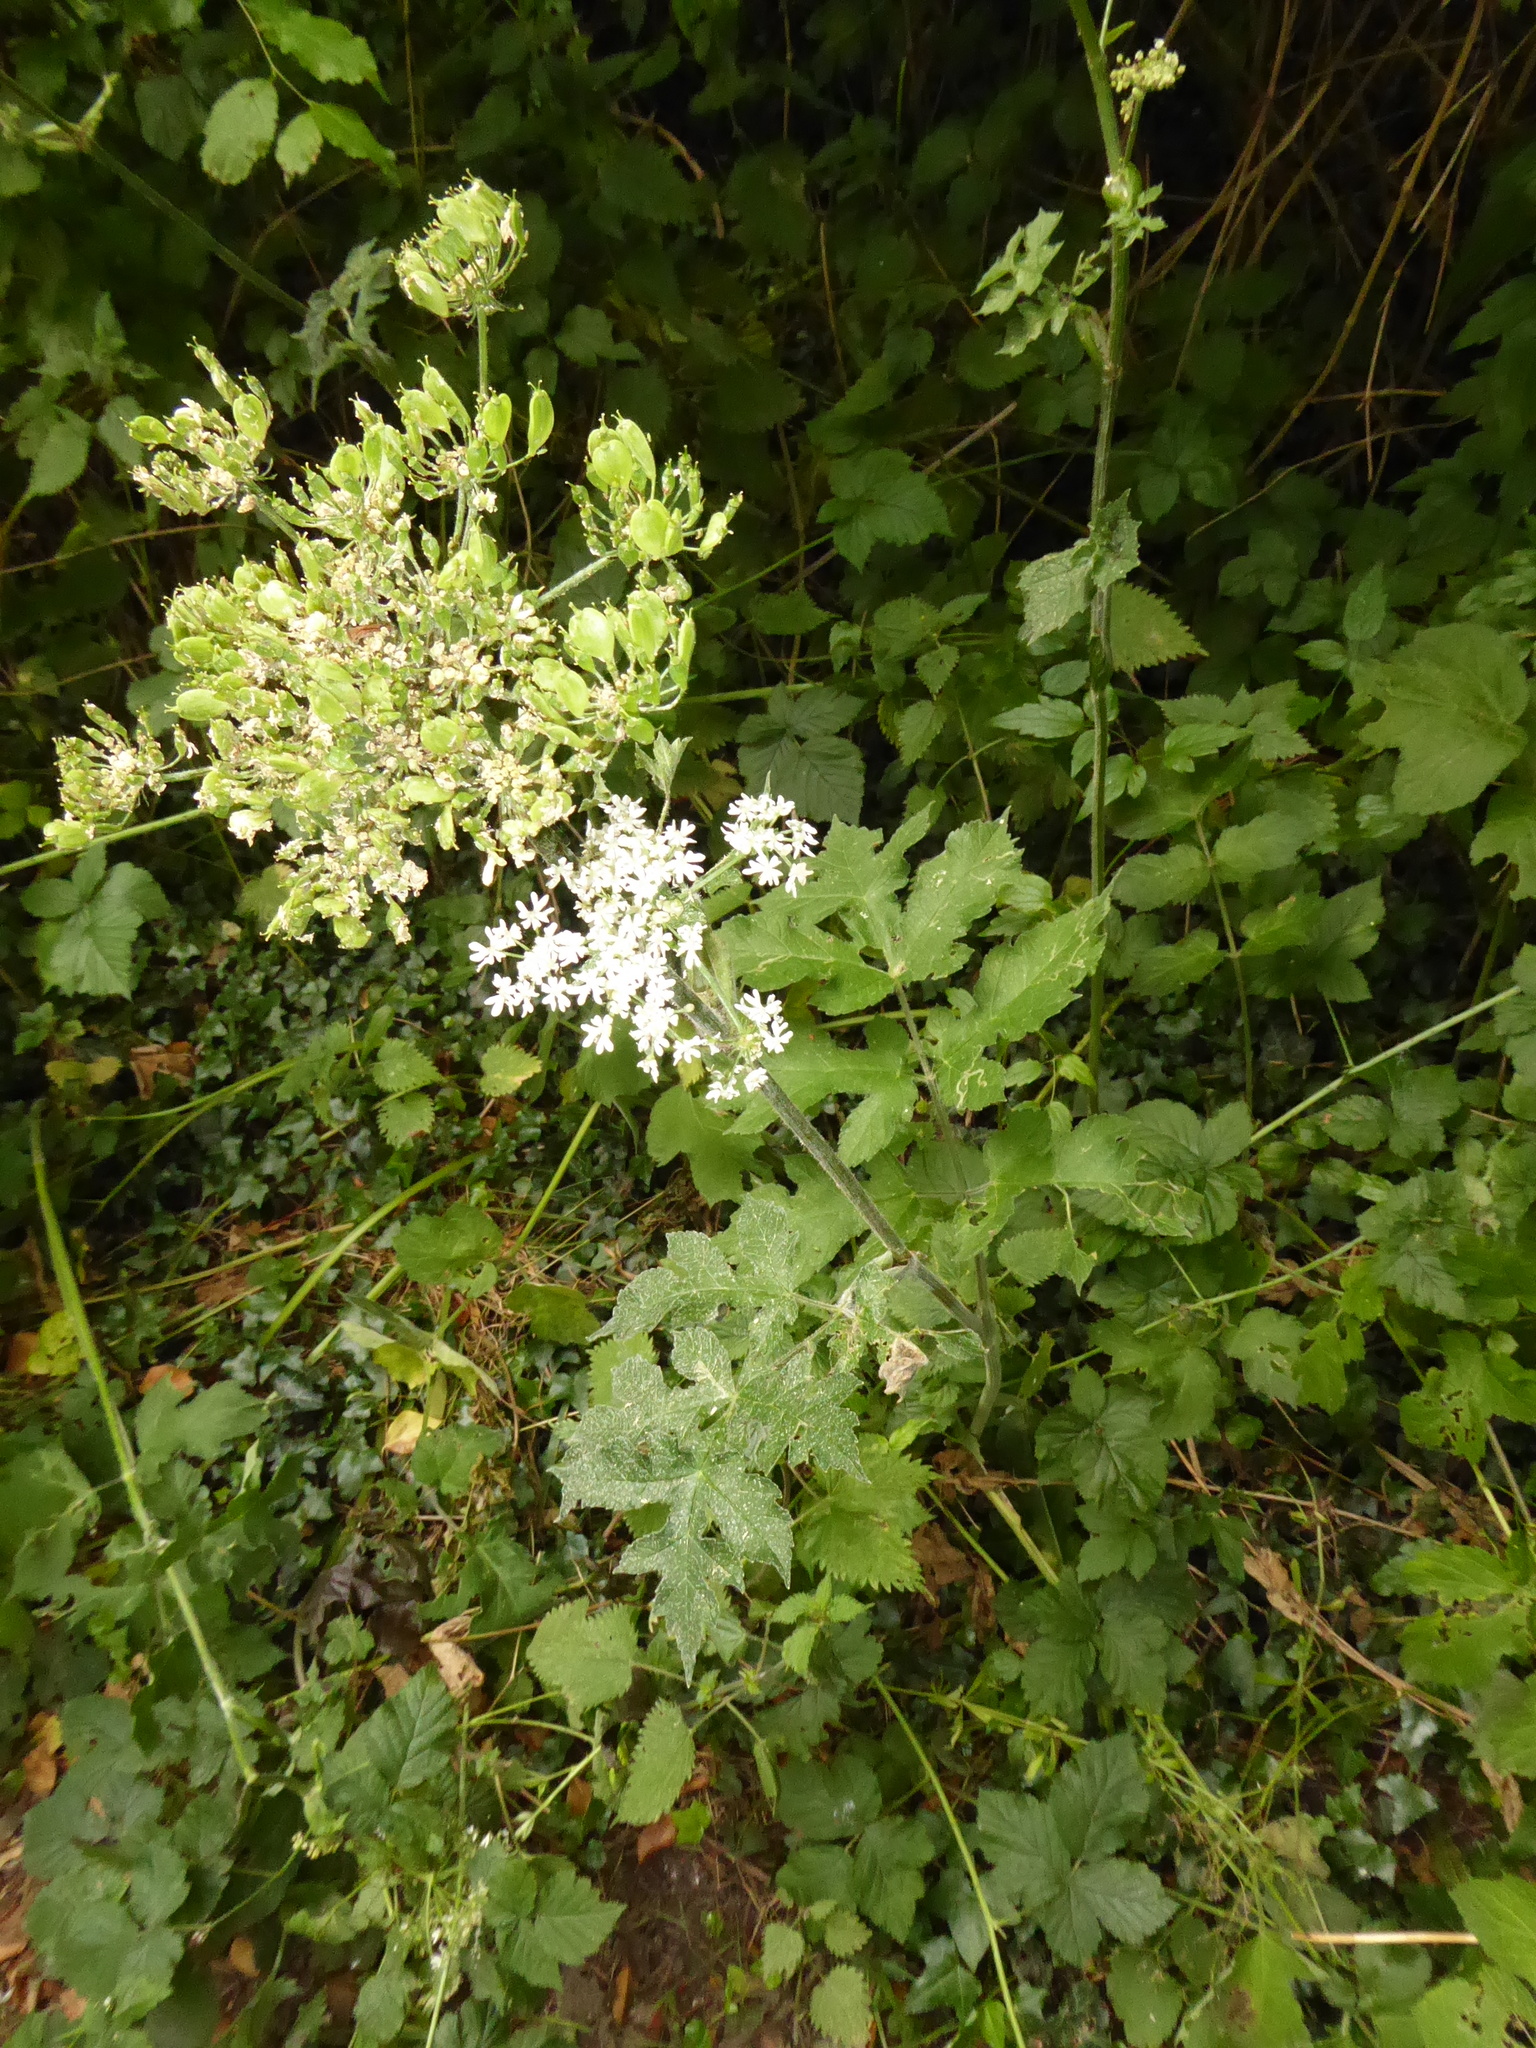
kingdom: Plantae
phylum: Tracheophyta
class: Magnoliopsida
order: Apiales
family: Apiaceae
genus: Heracleum
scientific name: Heracleum sphondylium
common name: Hogweed
